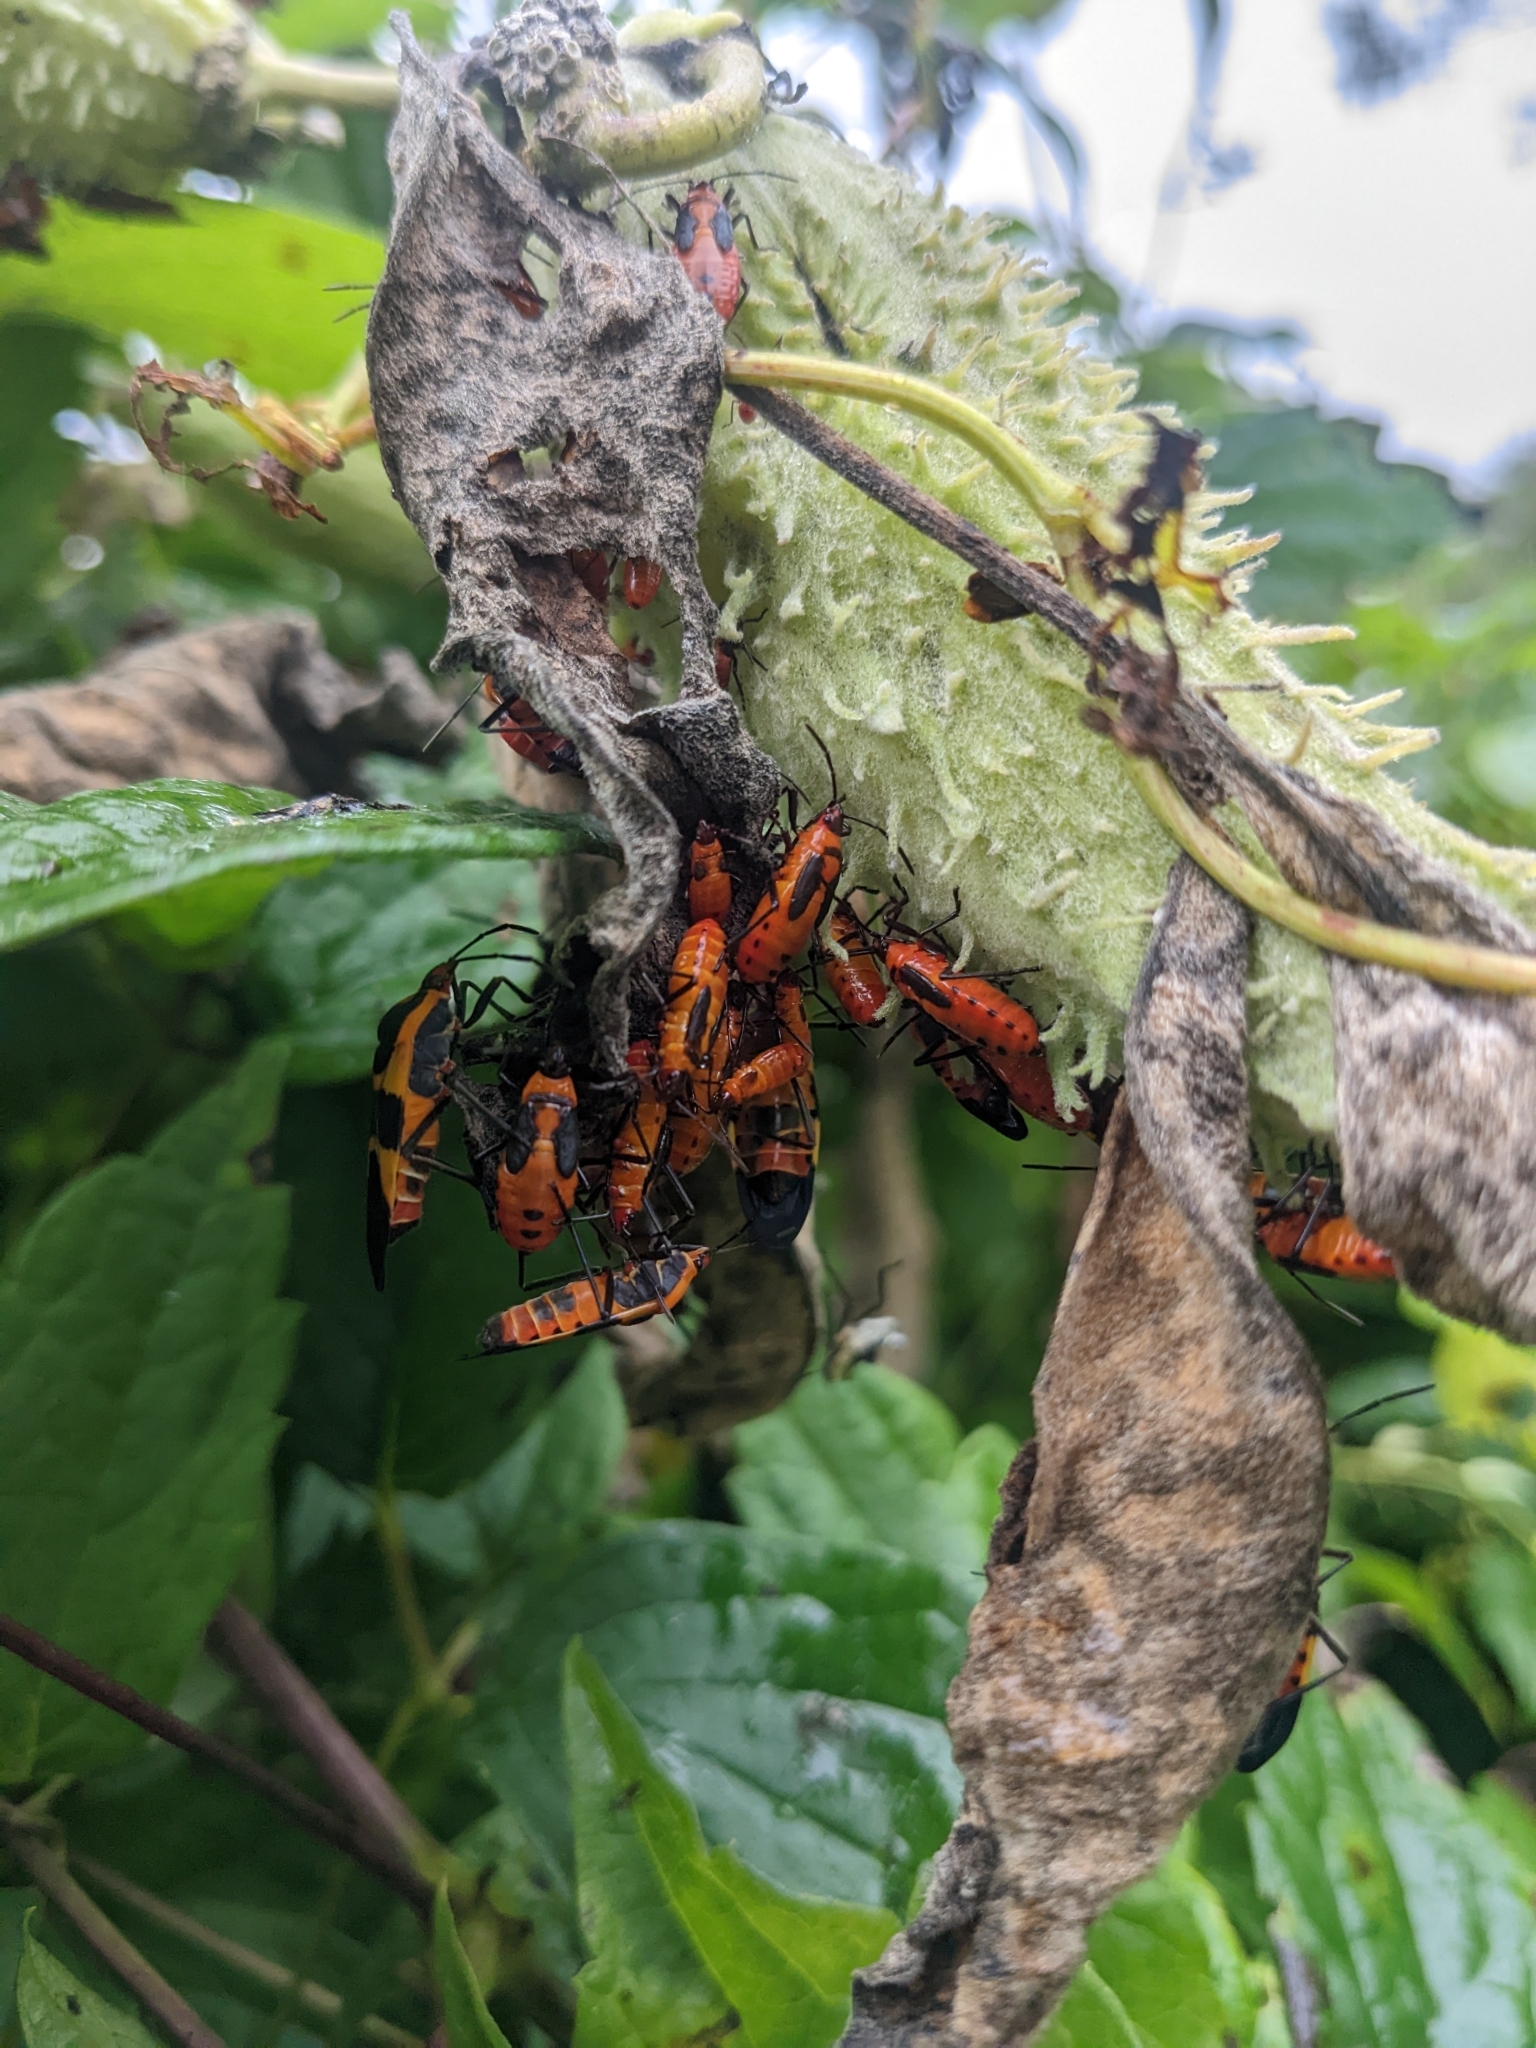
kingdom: Animalia
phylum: Arthropoda
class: Insecta
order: Hemiptera
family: Lygaeidae
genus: Oncopeltus
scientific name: Oncopeltus fasciatus
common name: Large milkweed bug
